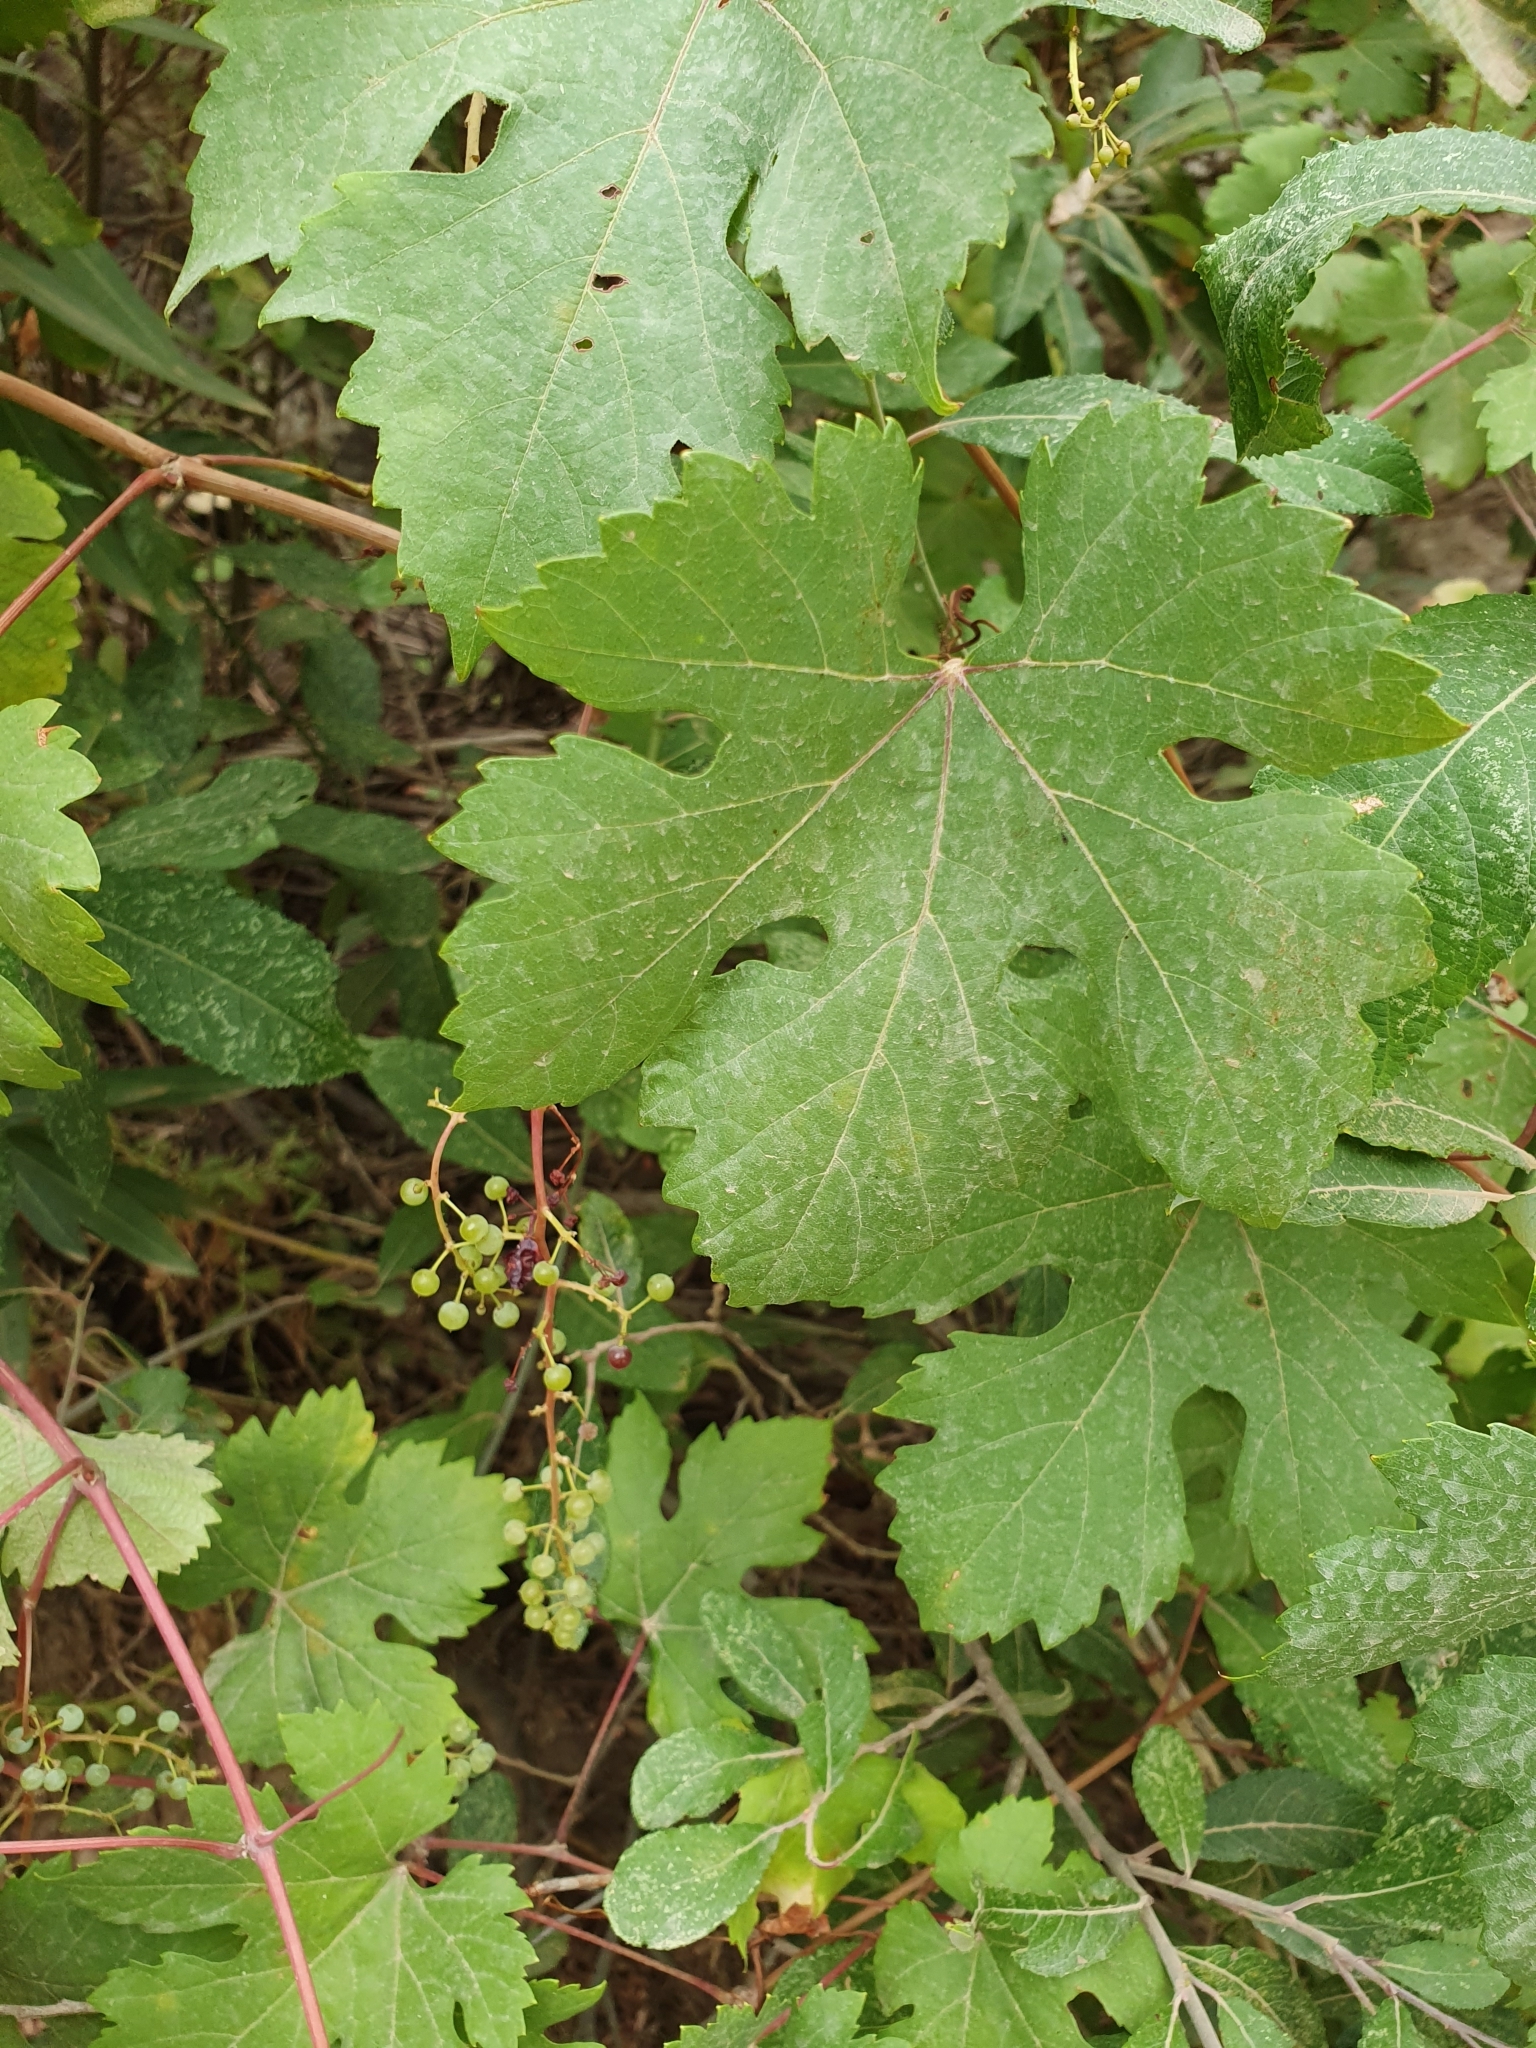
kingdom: Plantae
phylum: Tracheophyta
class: Magnoliopsida
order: Vitales
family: Vitaceae
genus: Vitis
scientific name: Vitis gmelinii
